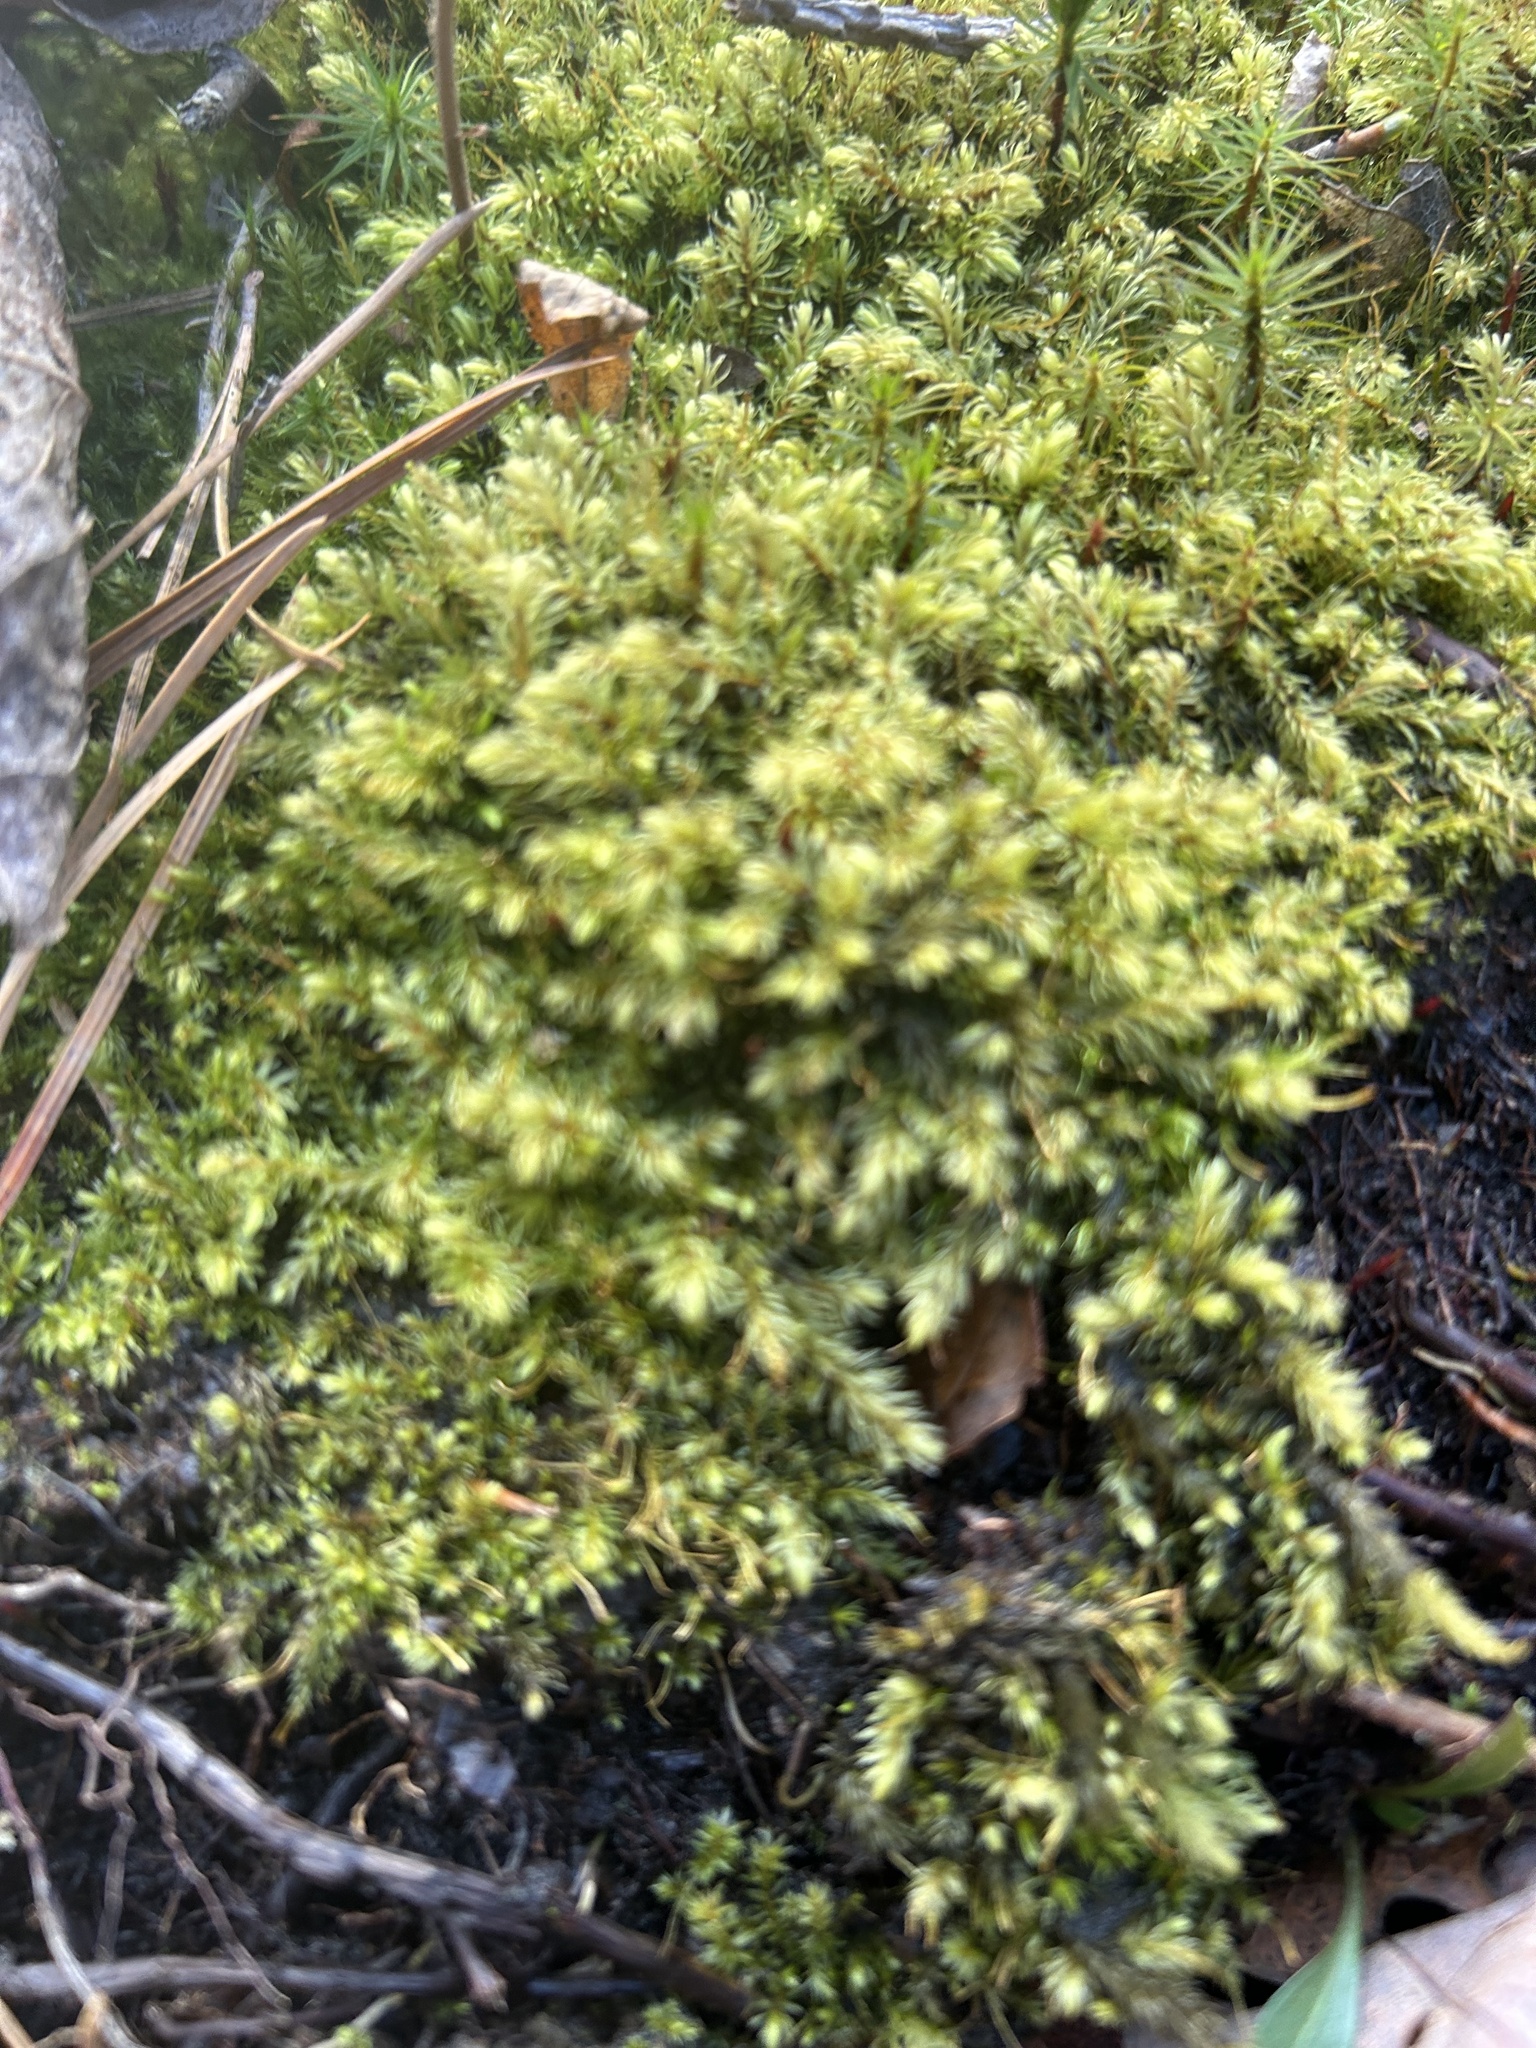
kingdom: Plantae
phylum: Bryophyta
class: Bryopsida
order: Aulacomniales
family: Aulacomniaceae
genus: Aulacomnium
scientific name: Aulacomnium palustre
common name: Bog groove-moss
